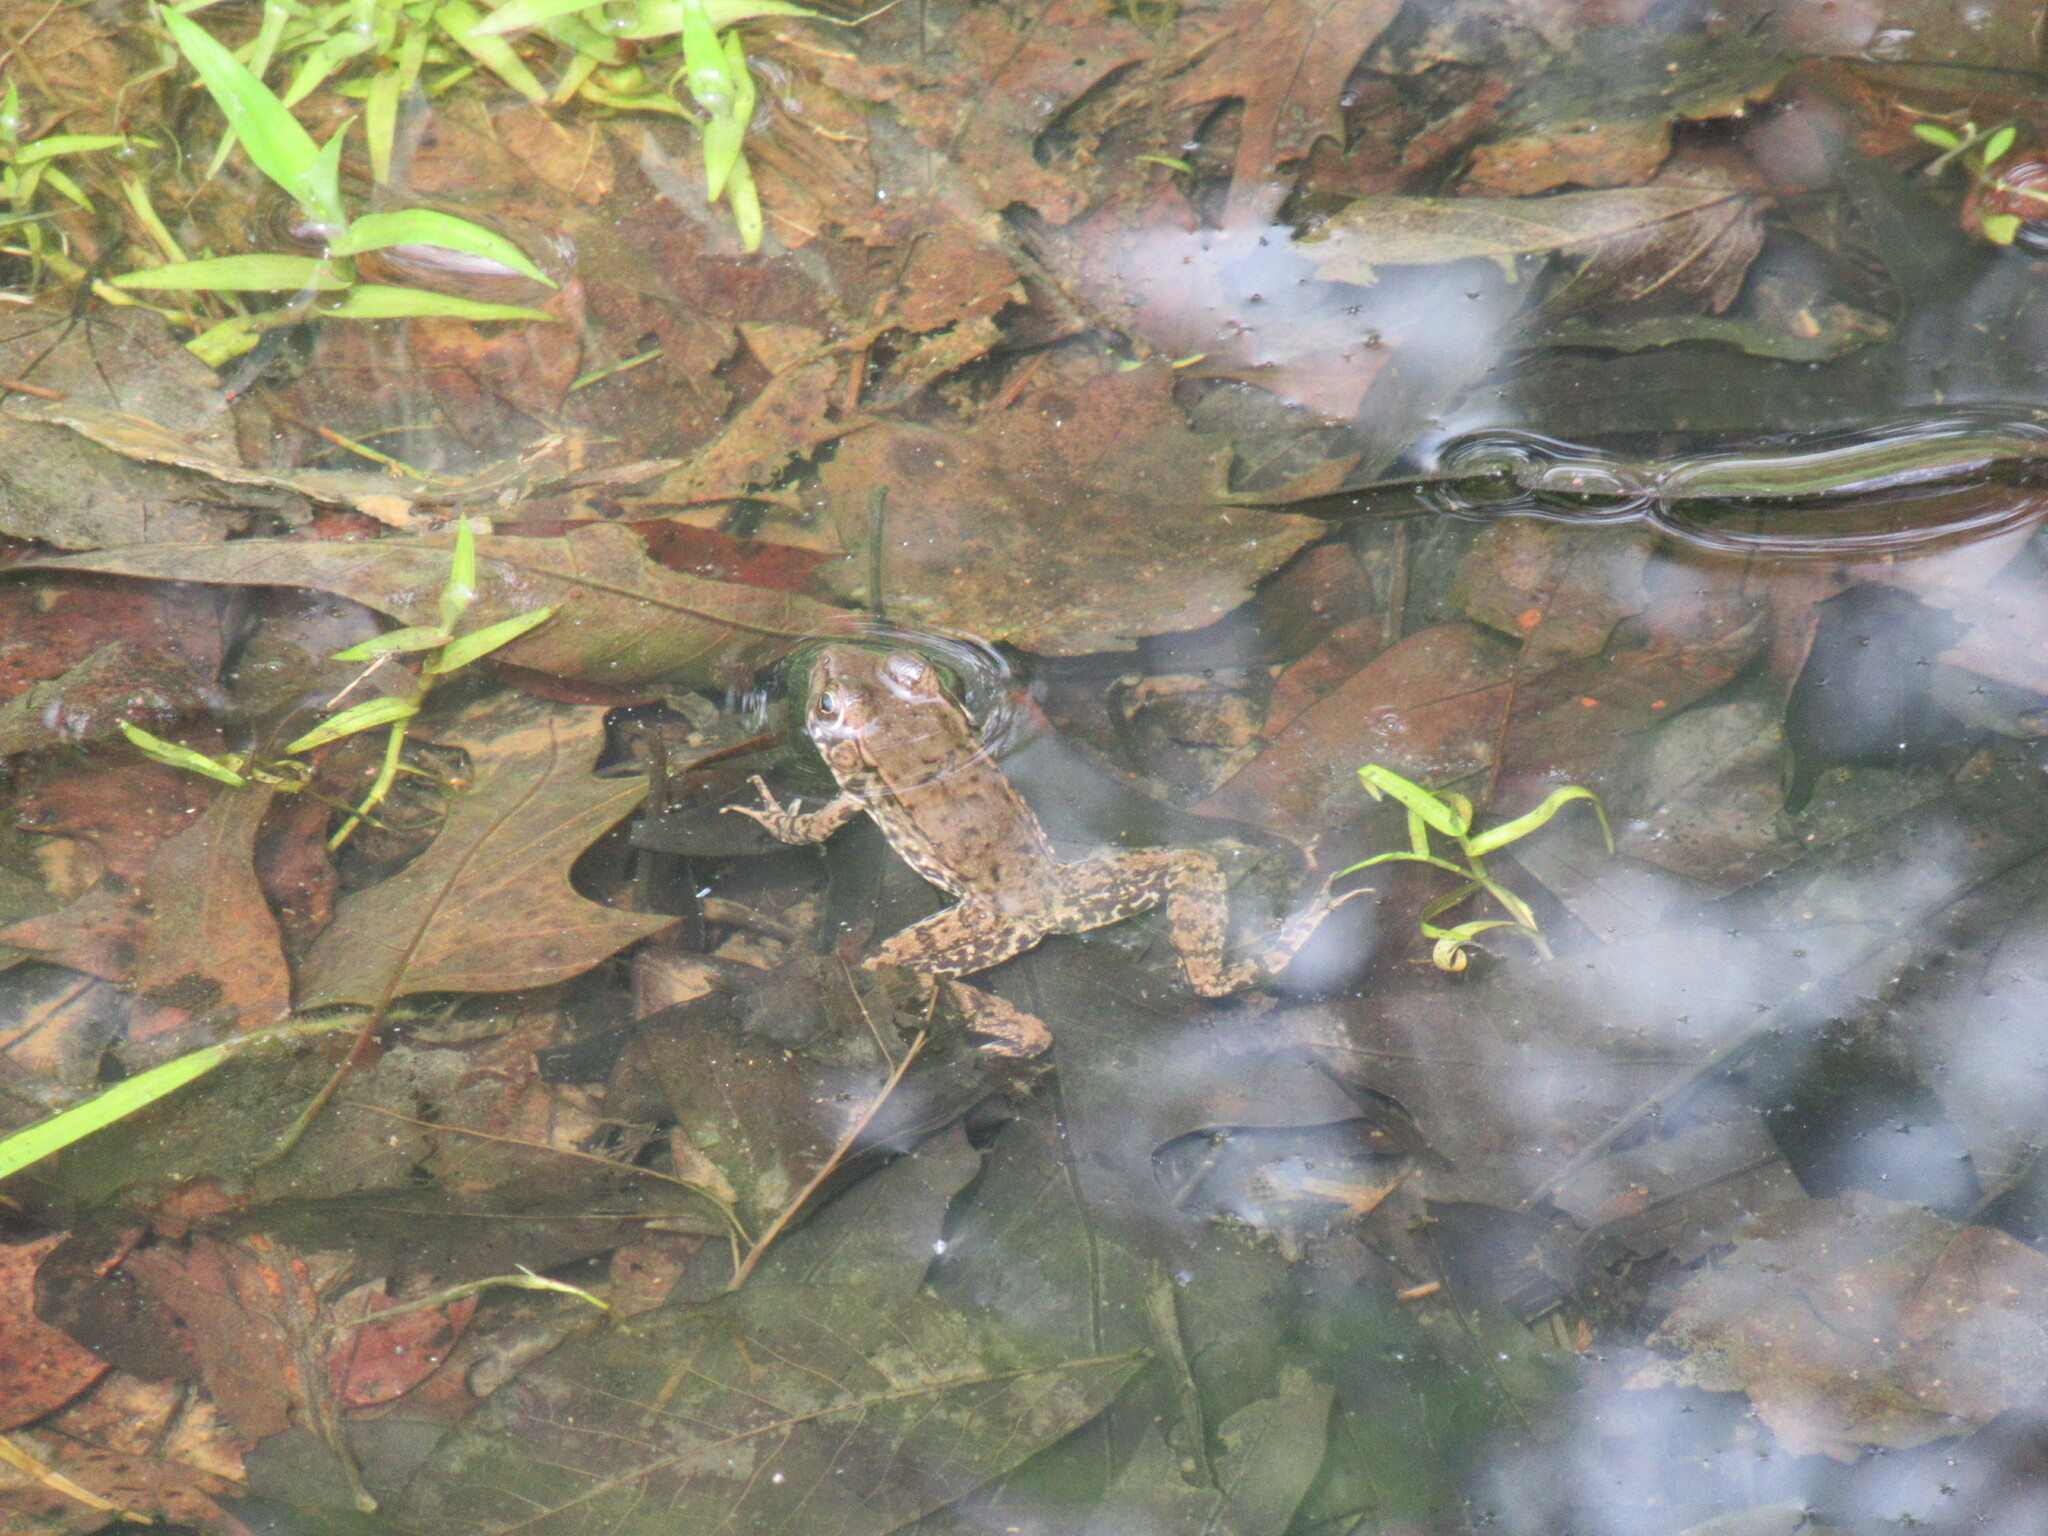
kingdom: Animalia
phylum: Chordata
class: Amphibia
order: Anura
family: Ranidae
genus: Lithobates
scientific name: Lithobates clamitans
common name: Green frog
